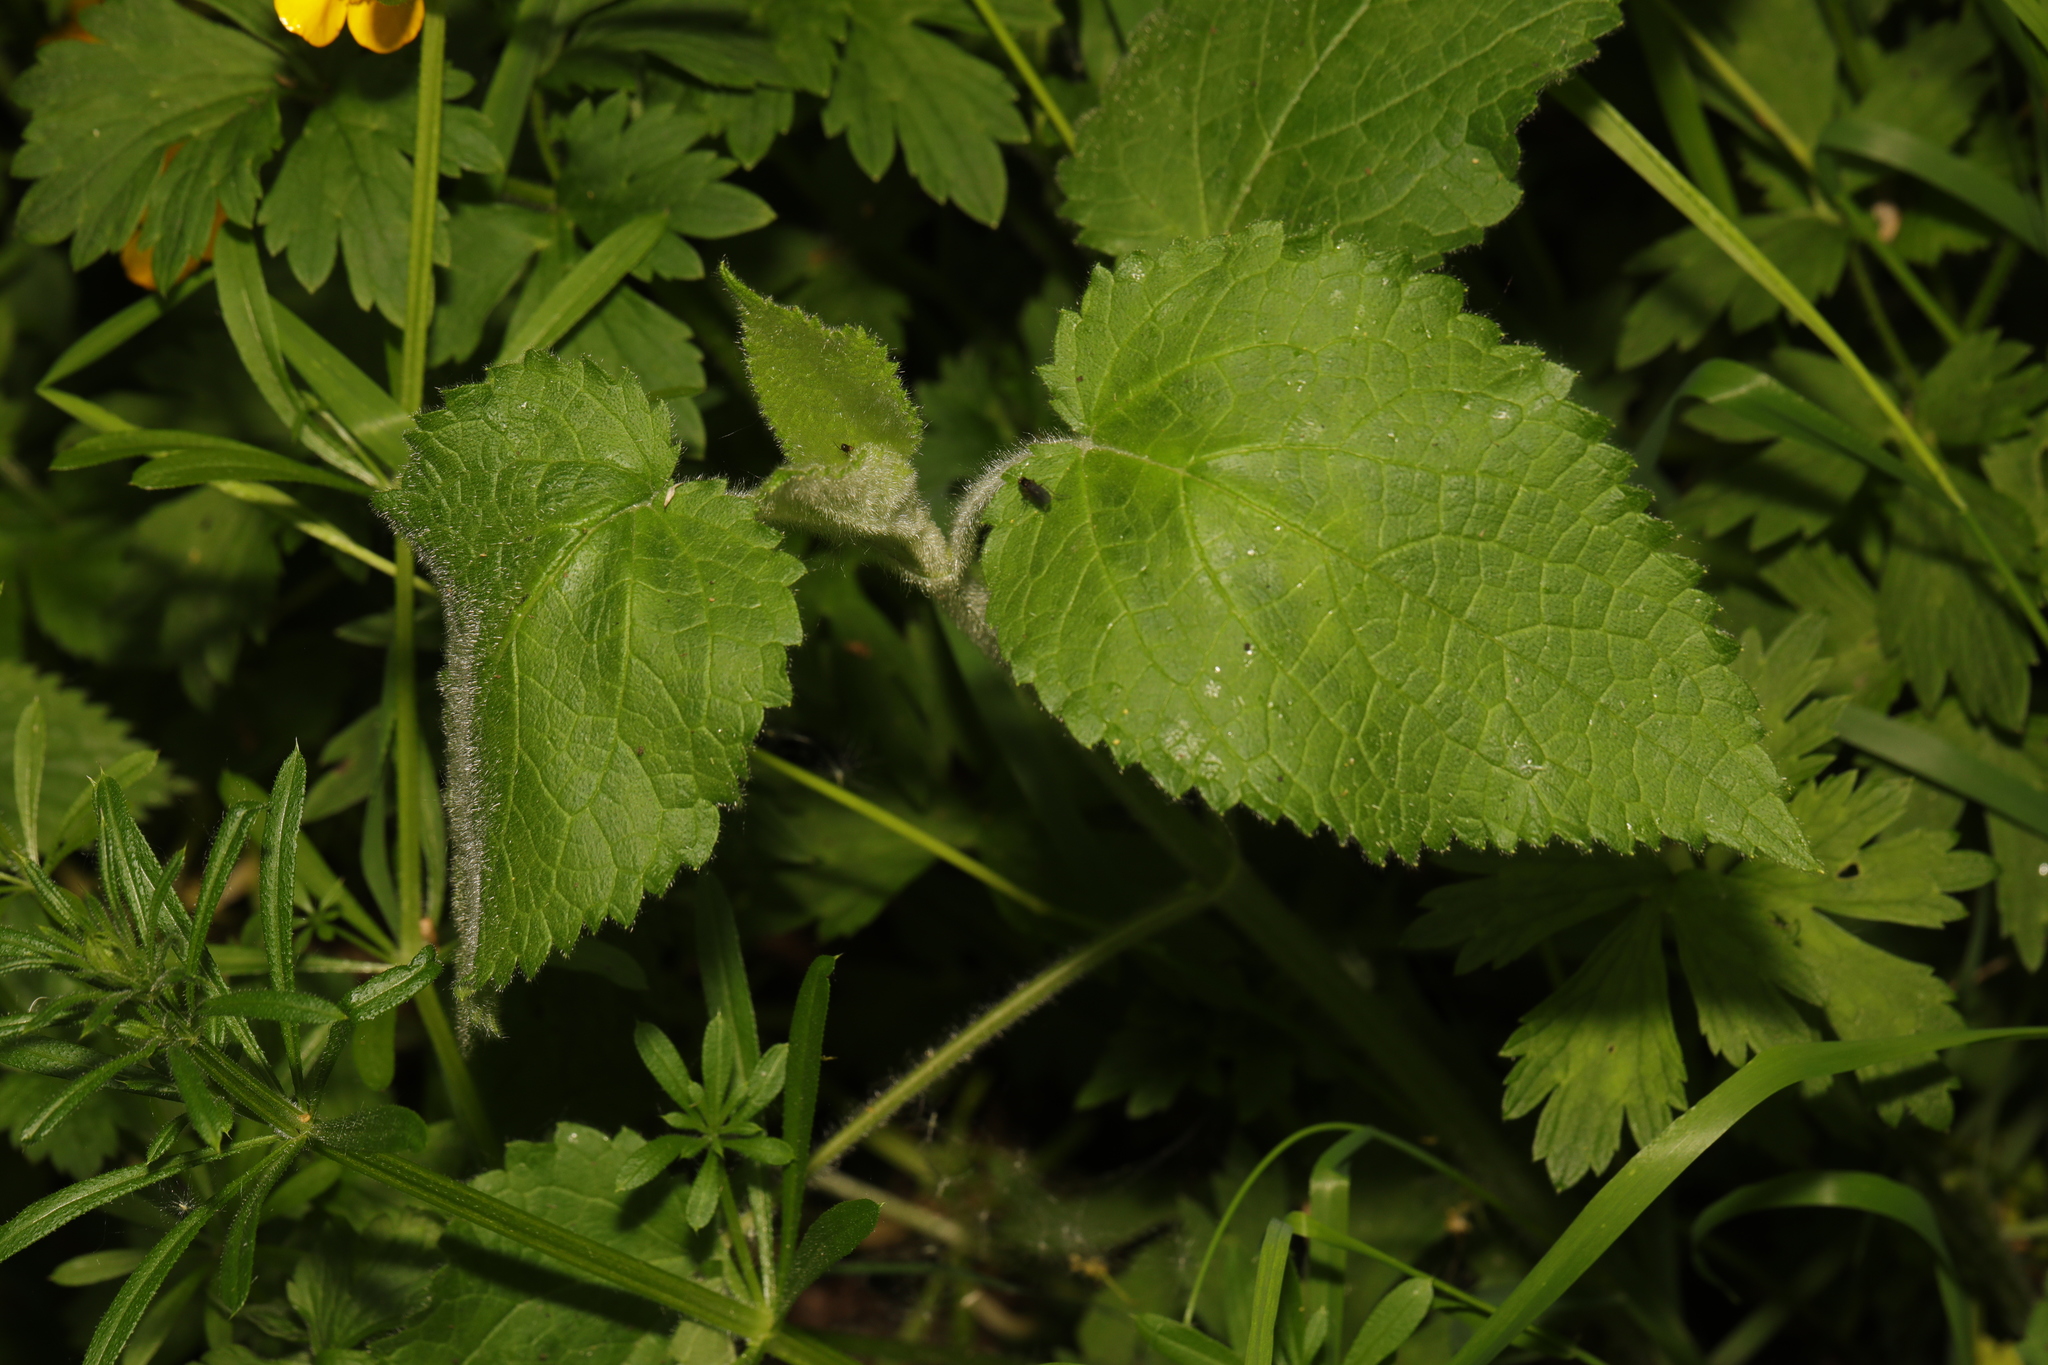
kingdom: Plantae
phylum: Tracheophyta
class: Magnoliopsida
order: Lamiales
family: Lamiaceae
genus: Stachys
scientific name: Stachys sylvatica
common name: Hedge woundwort
